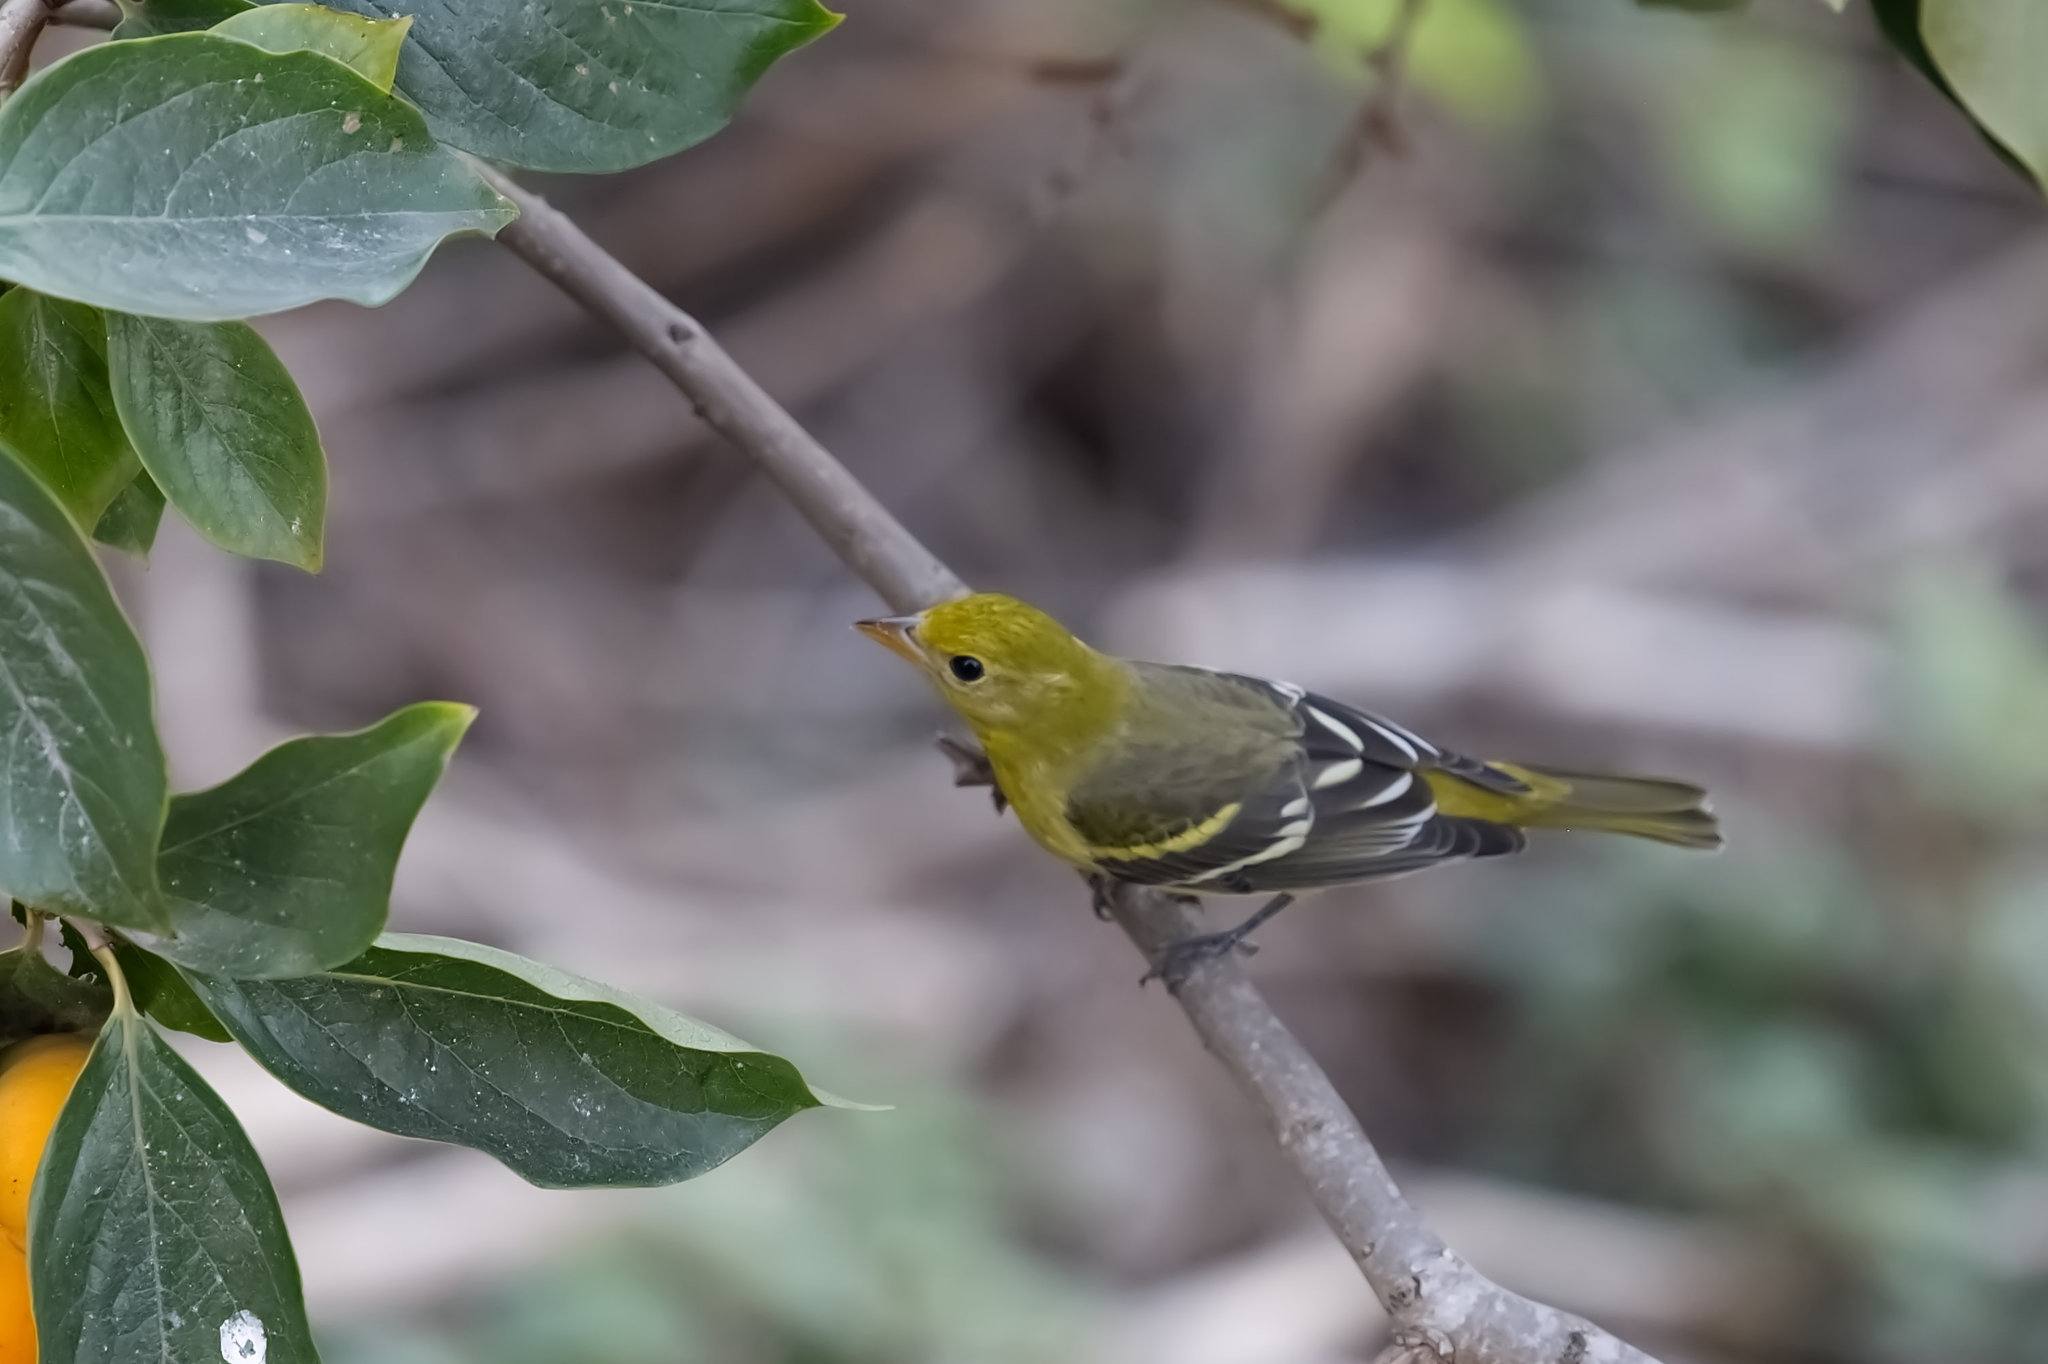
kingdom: Animalia
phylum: Chordata
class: Aves
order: Passeriformes
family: Cardinalidae
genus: Piranga
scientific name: Piranga ludoviciana
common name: Western tanager
